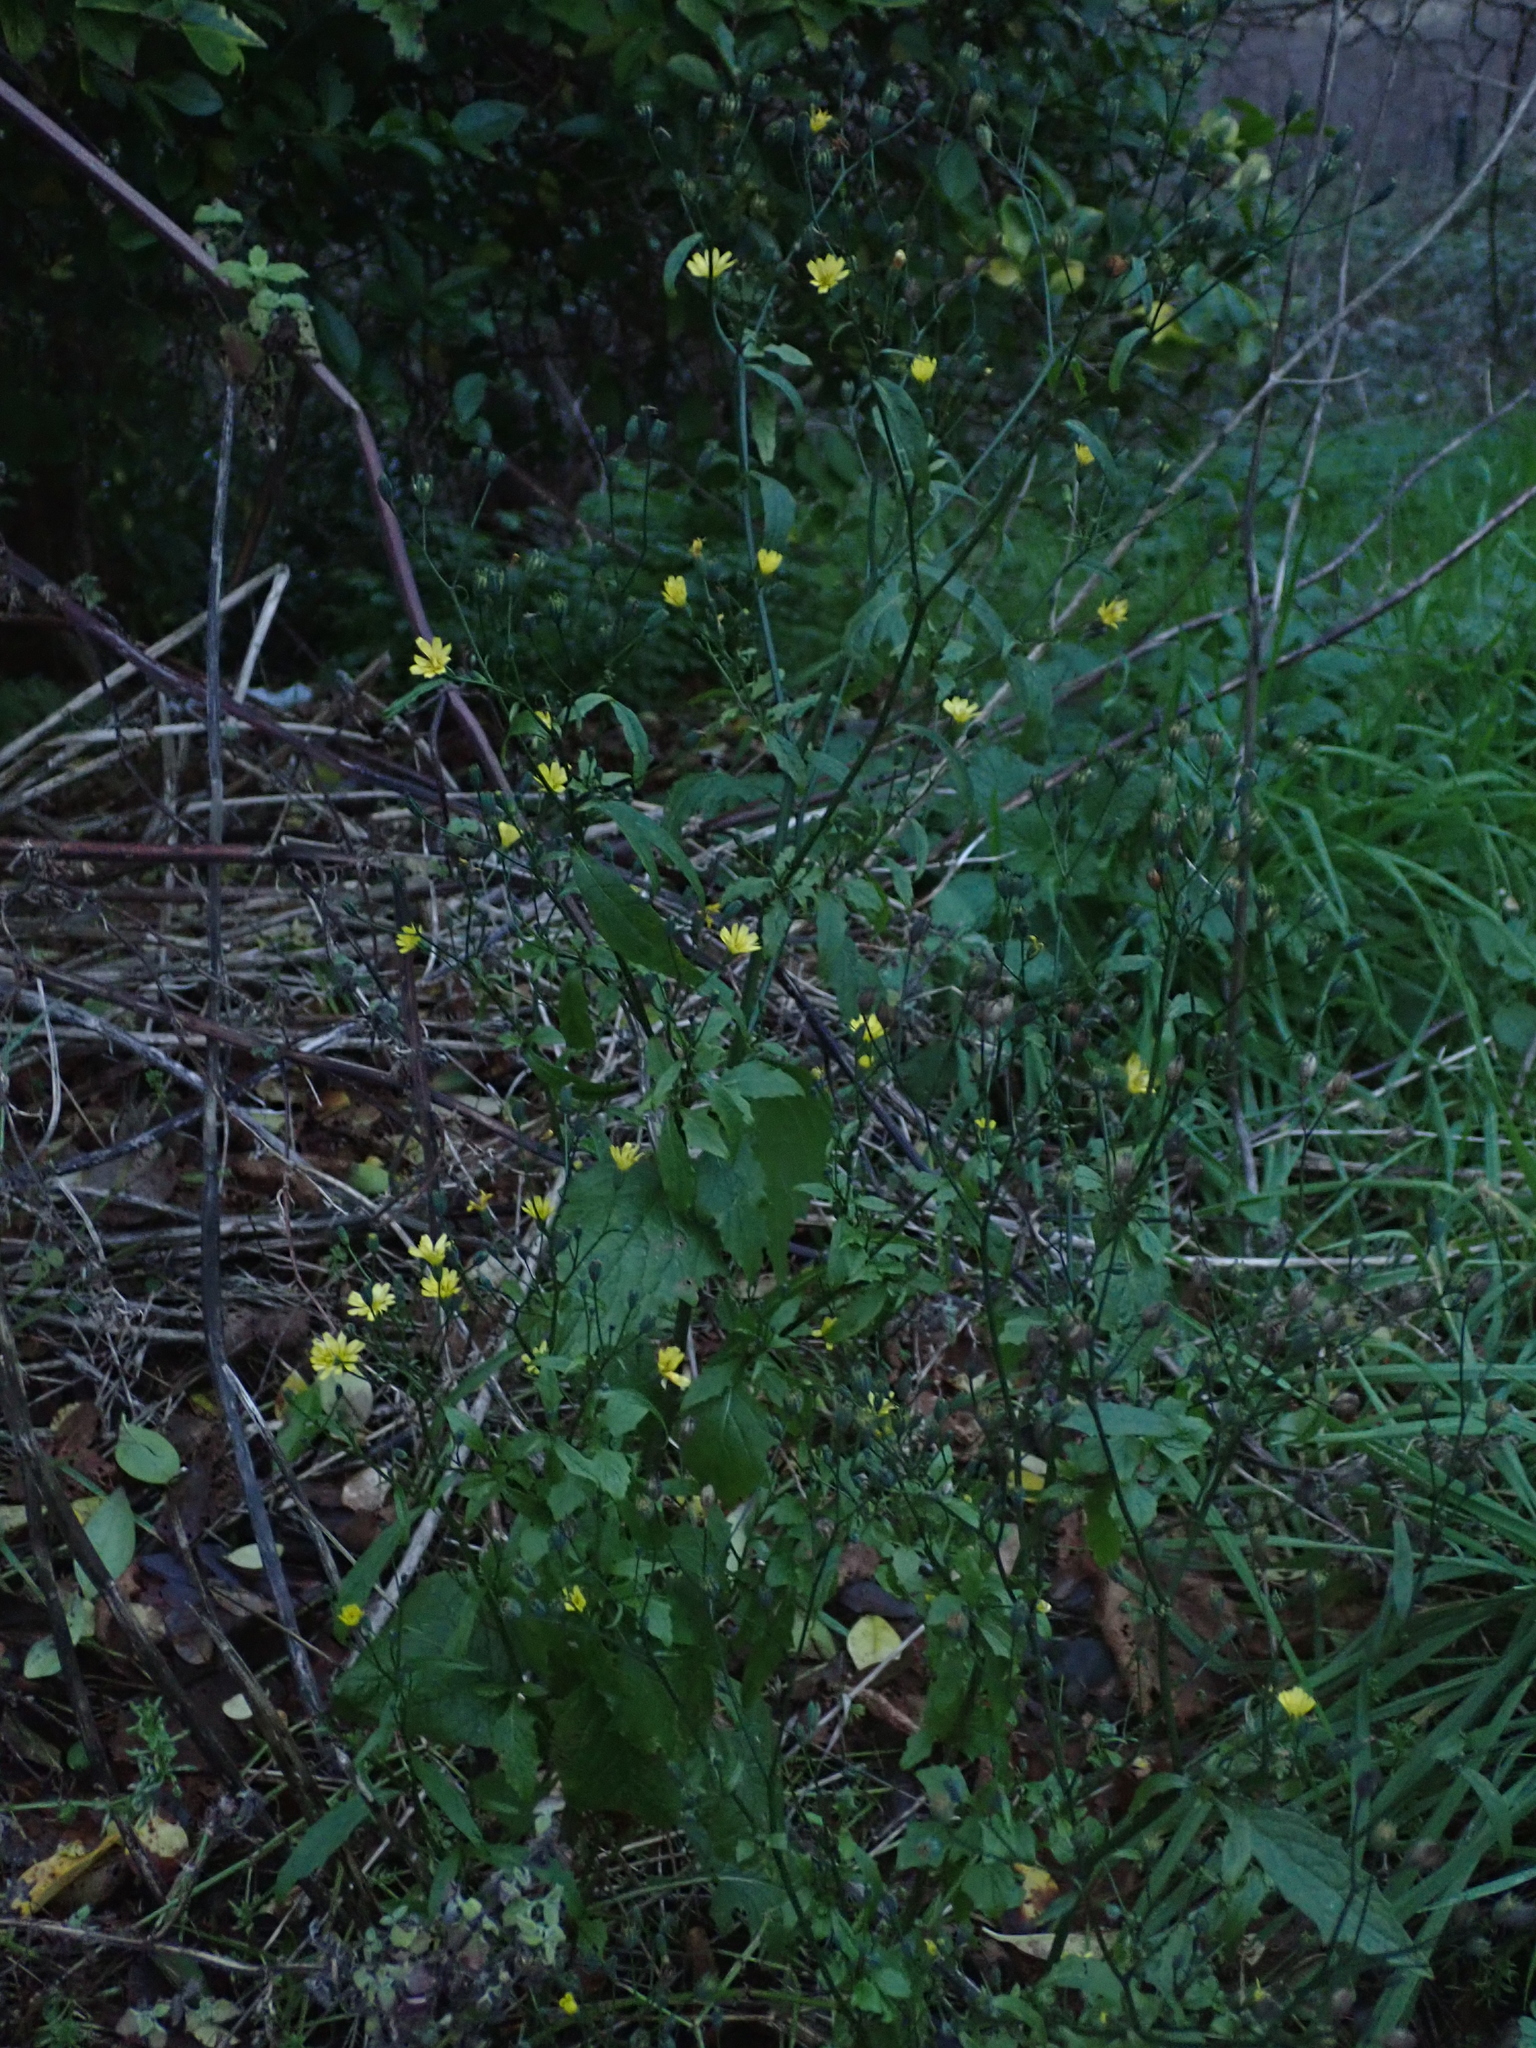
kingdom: Plantae
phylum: Tracheophyta
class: Magnoliopsida
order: Asterales
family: Asteraceae
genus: Lapsana
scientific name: Lapsana communis
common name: Nipplewort
